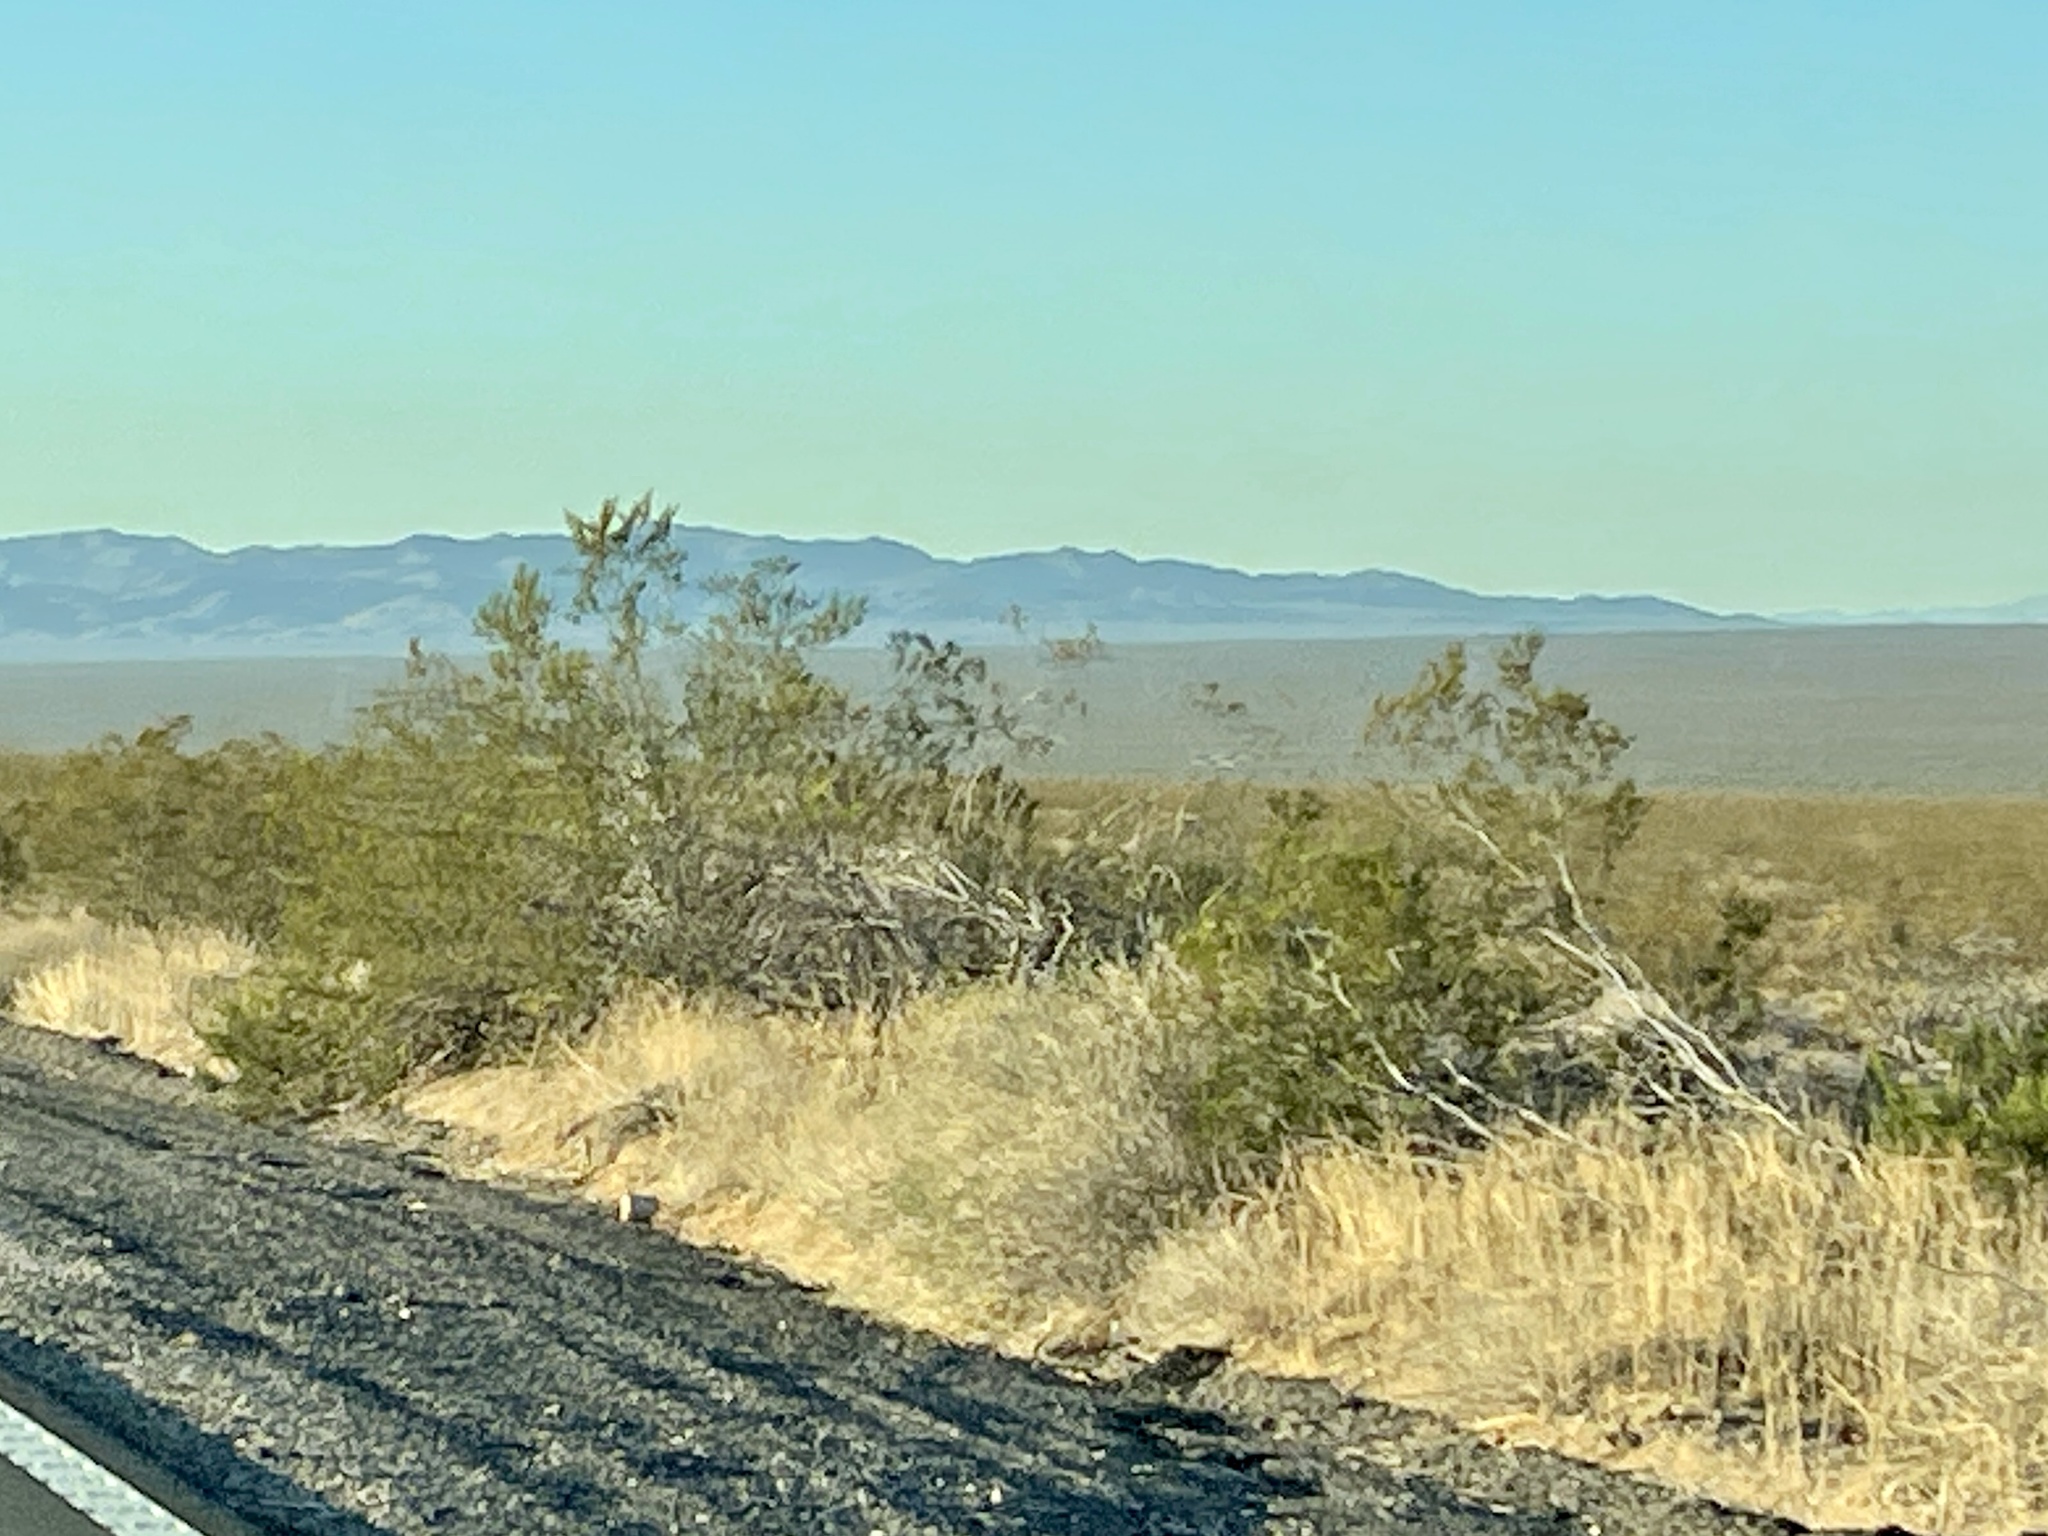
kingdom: Plantae
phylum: Tracheophyta
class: Magnoliopsida
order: Zygophyllales
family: Zygophyllaceae
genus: Larrea
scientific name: Larrea tridentata
